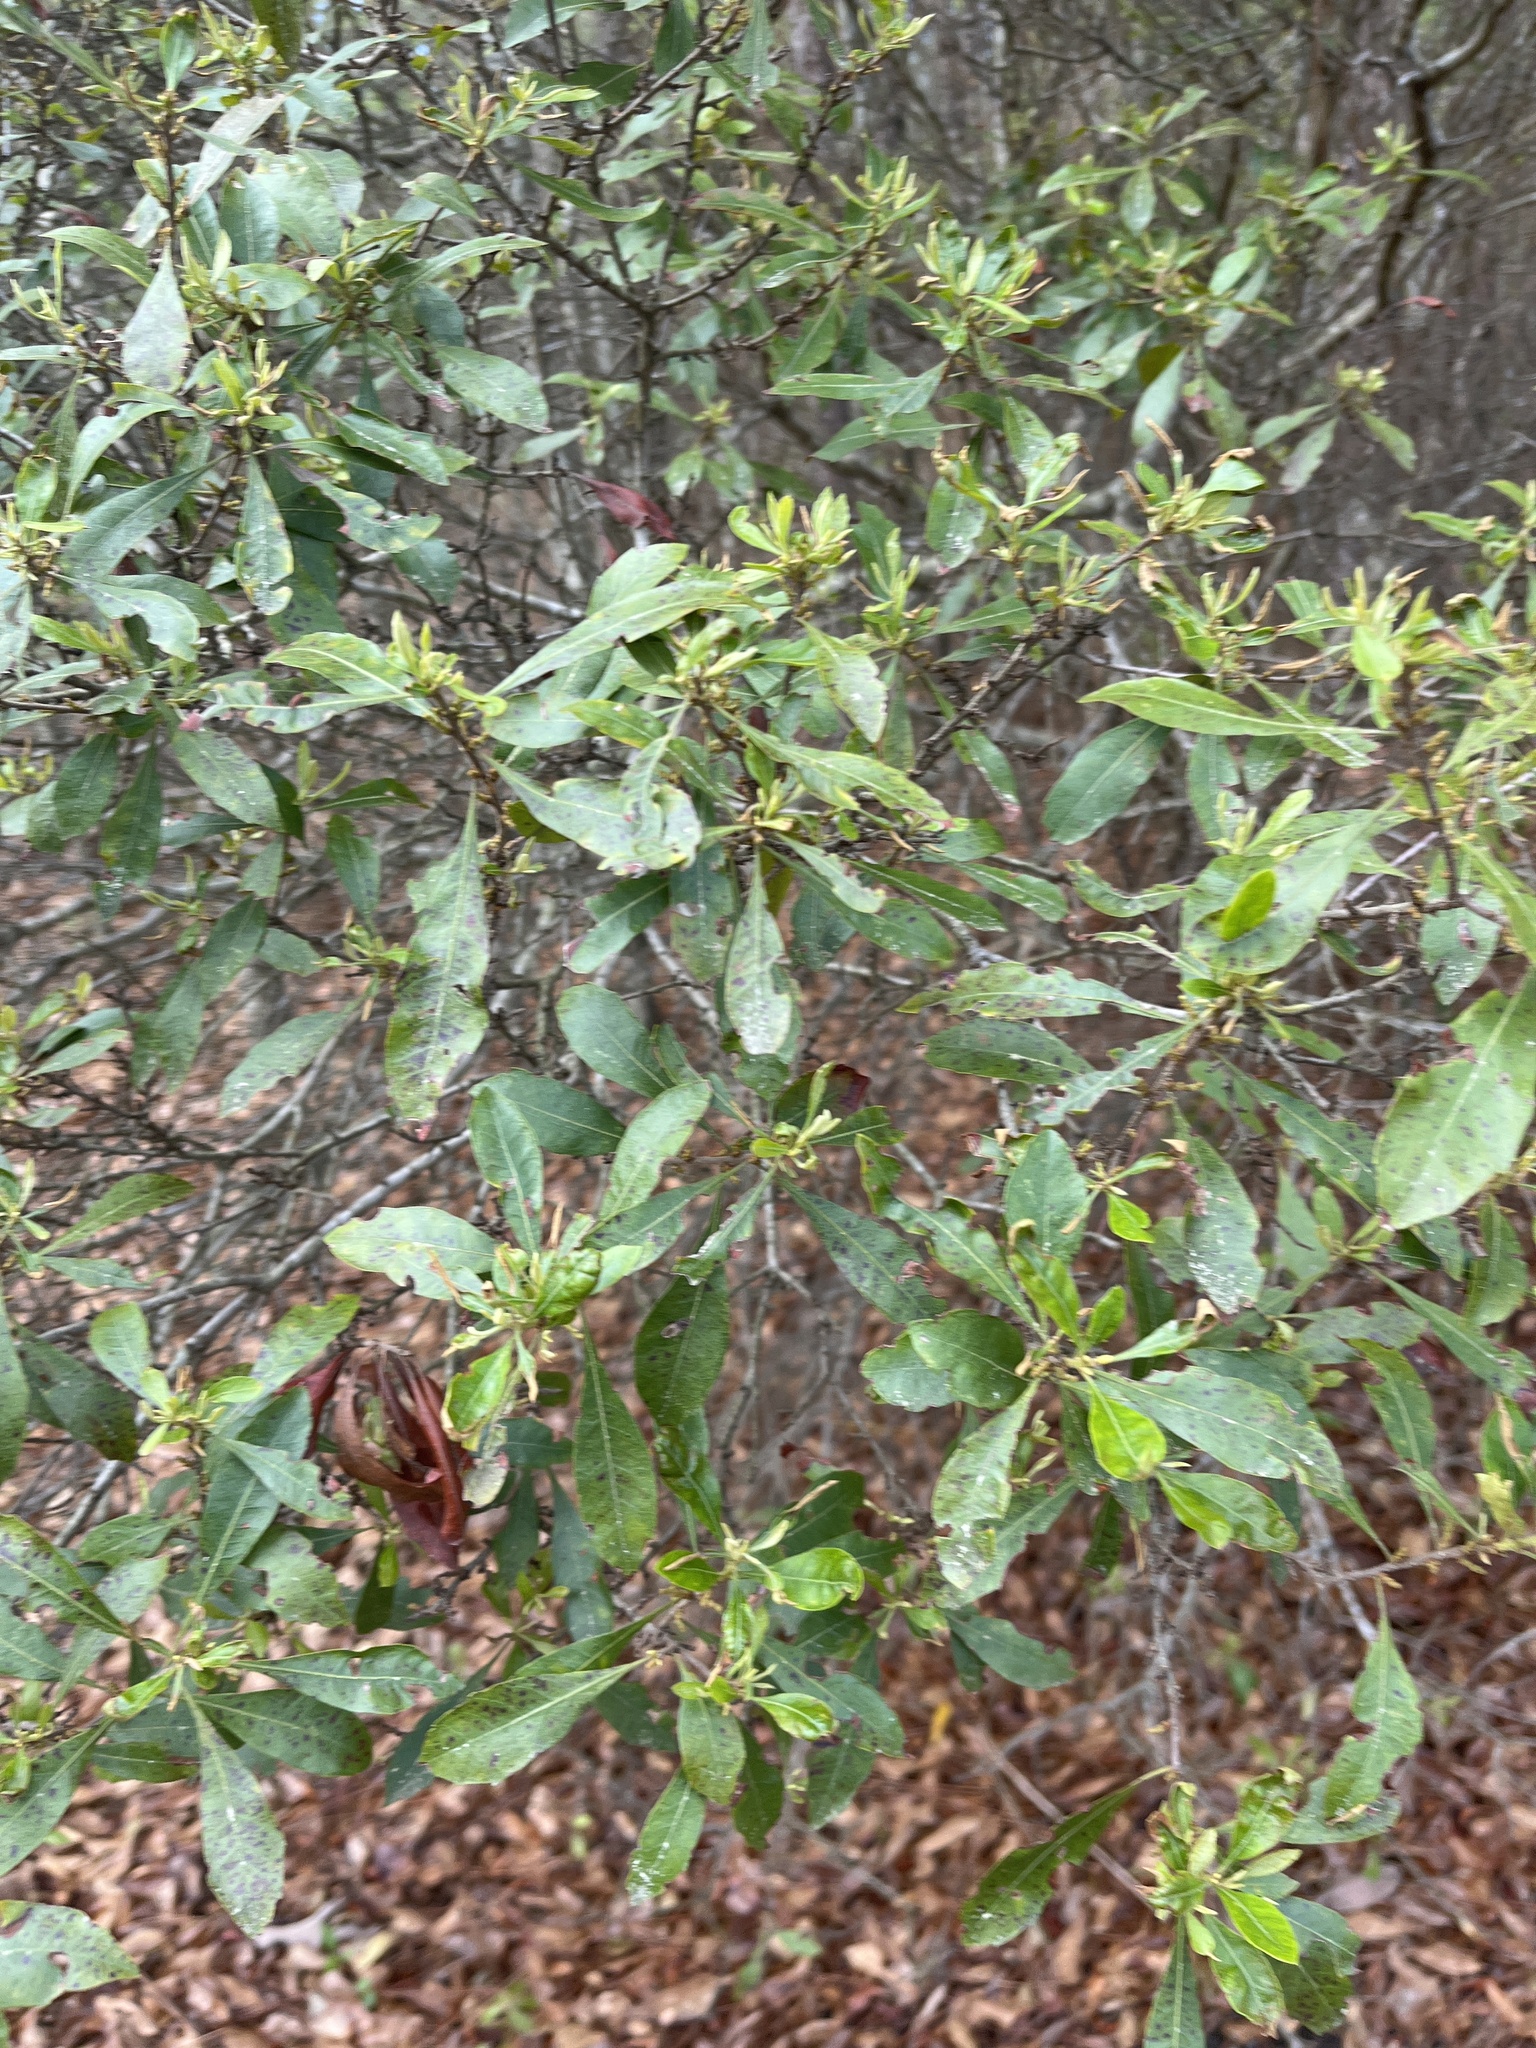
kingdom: Plantae
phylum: Tracheophyta
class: Magnoliopsida
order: Fagales
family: Myricaceae
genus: Morella
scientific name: Morella cerifera
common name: Wax myrtle
